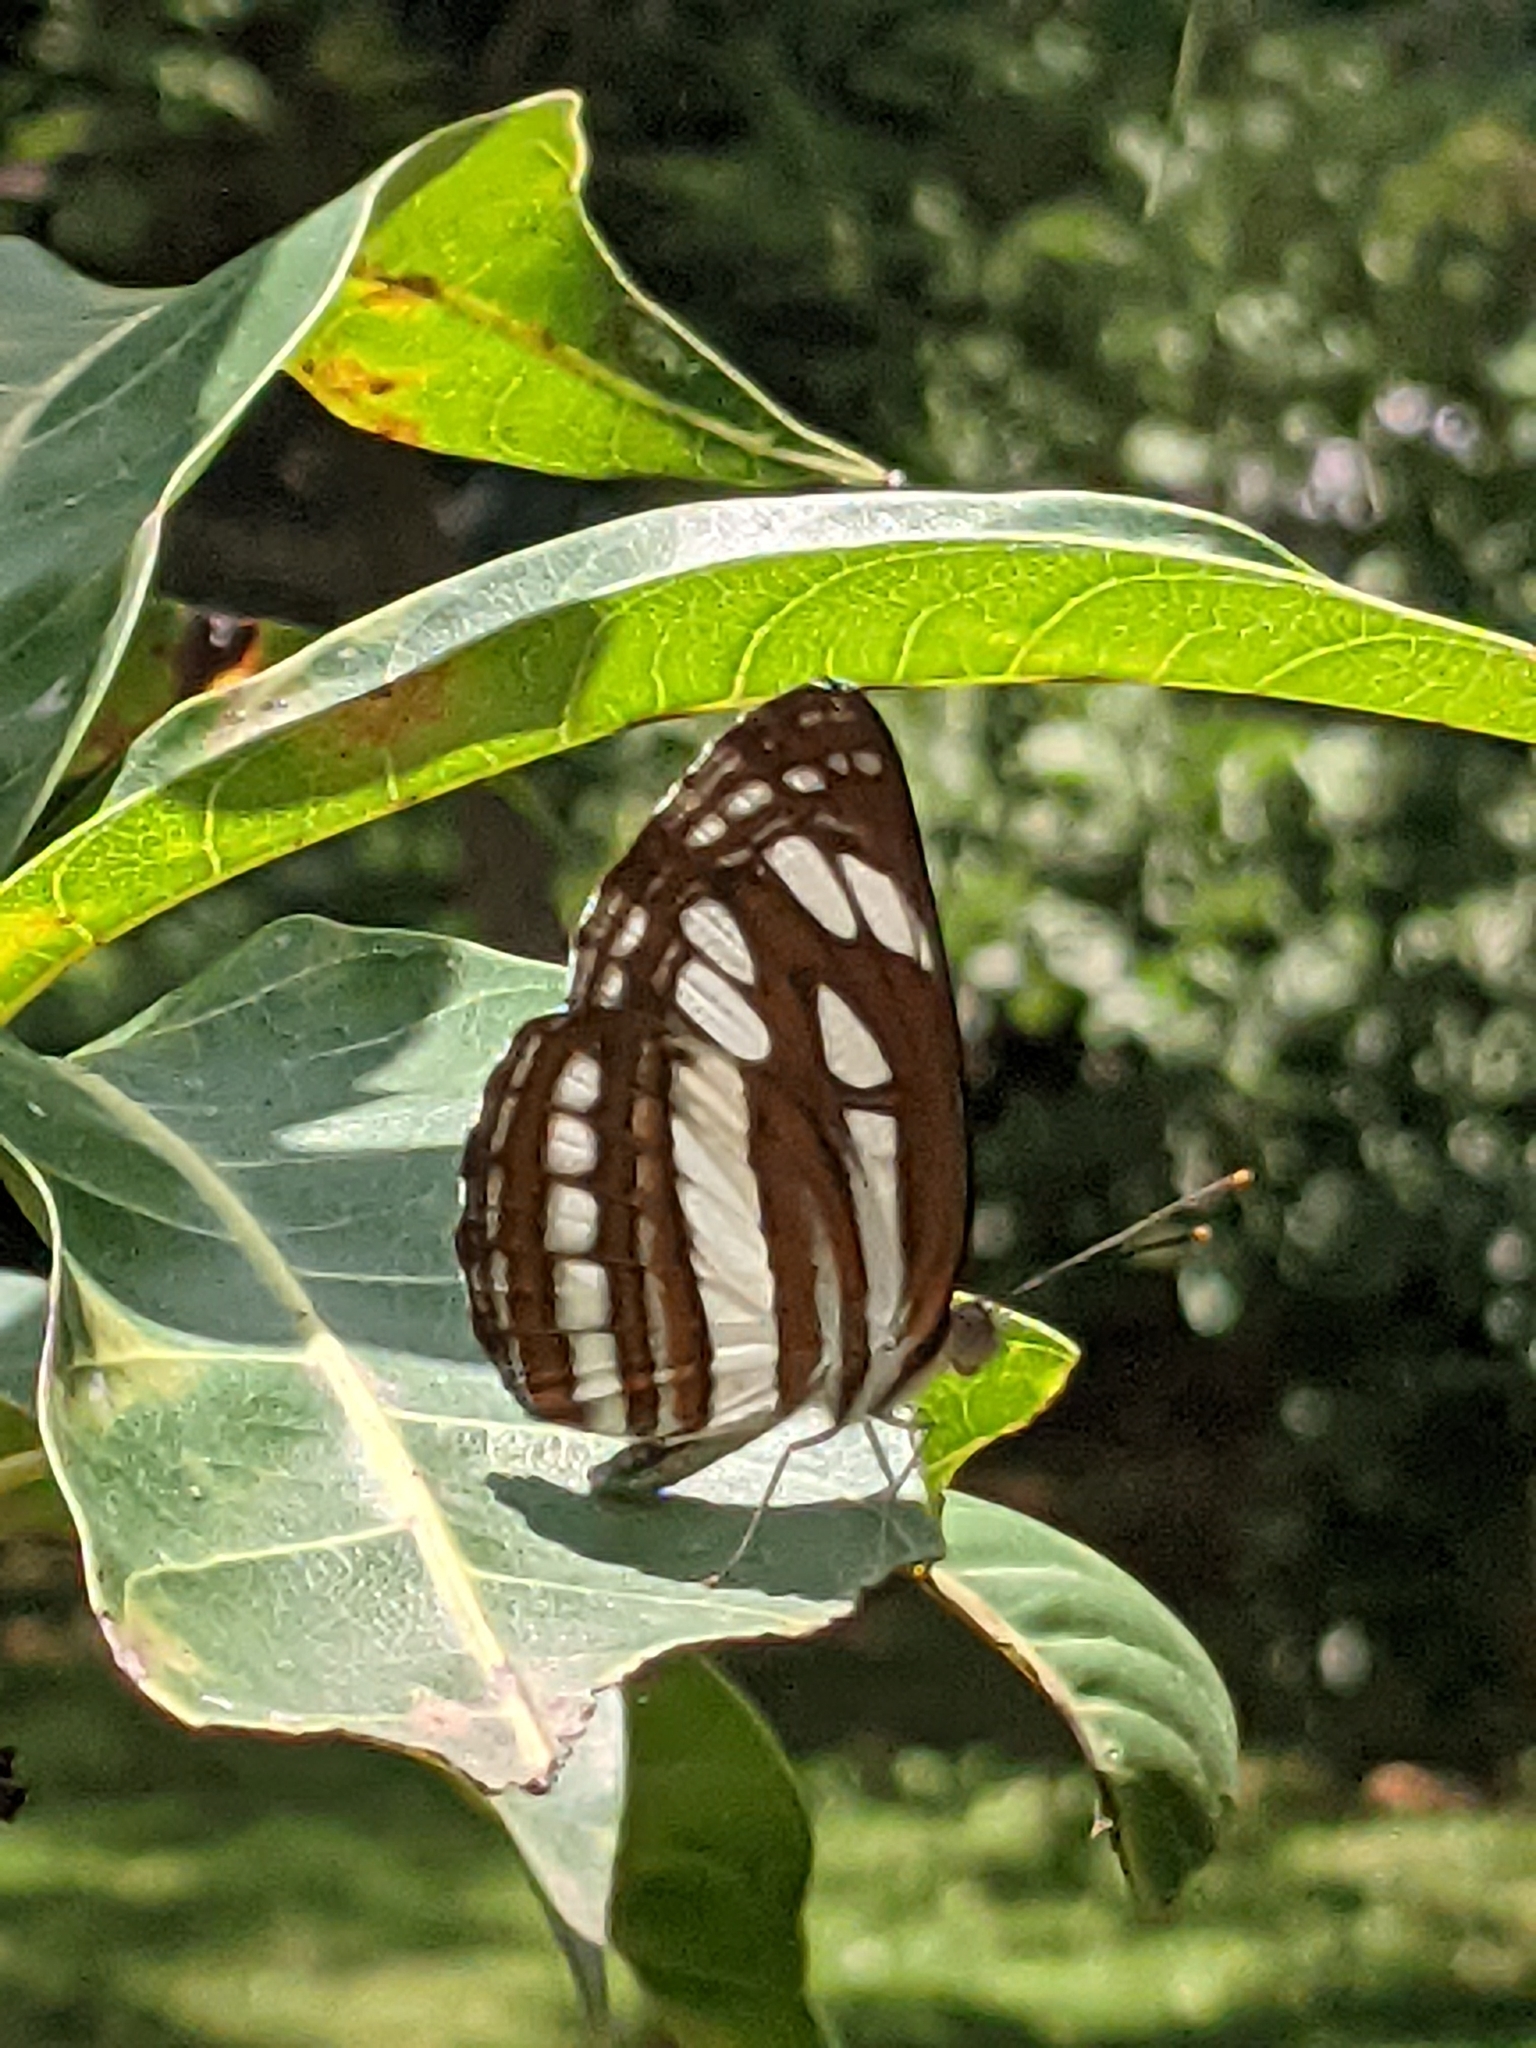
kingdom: Animalia
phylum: Arthropoda
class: Insecta
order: Lepidoptera
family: Nymphalidae
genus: Neptis
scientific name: Neptis hylas
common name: Common sailer
